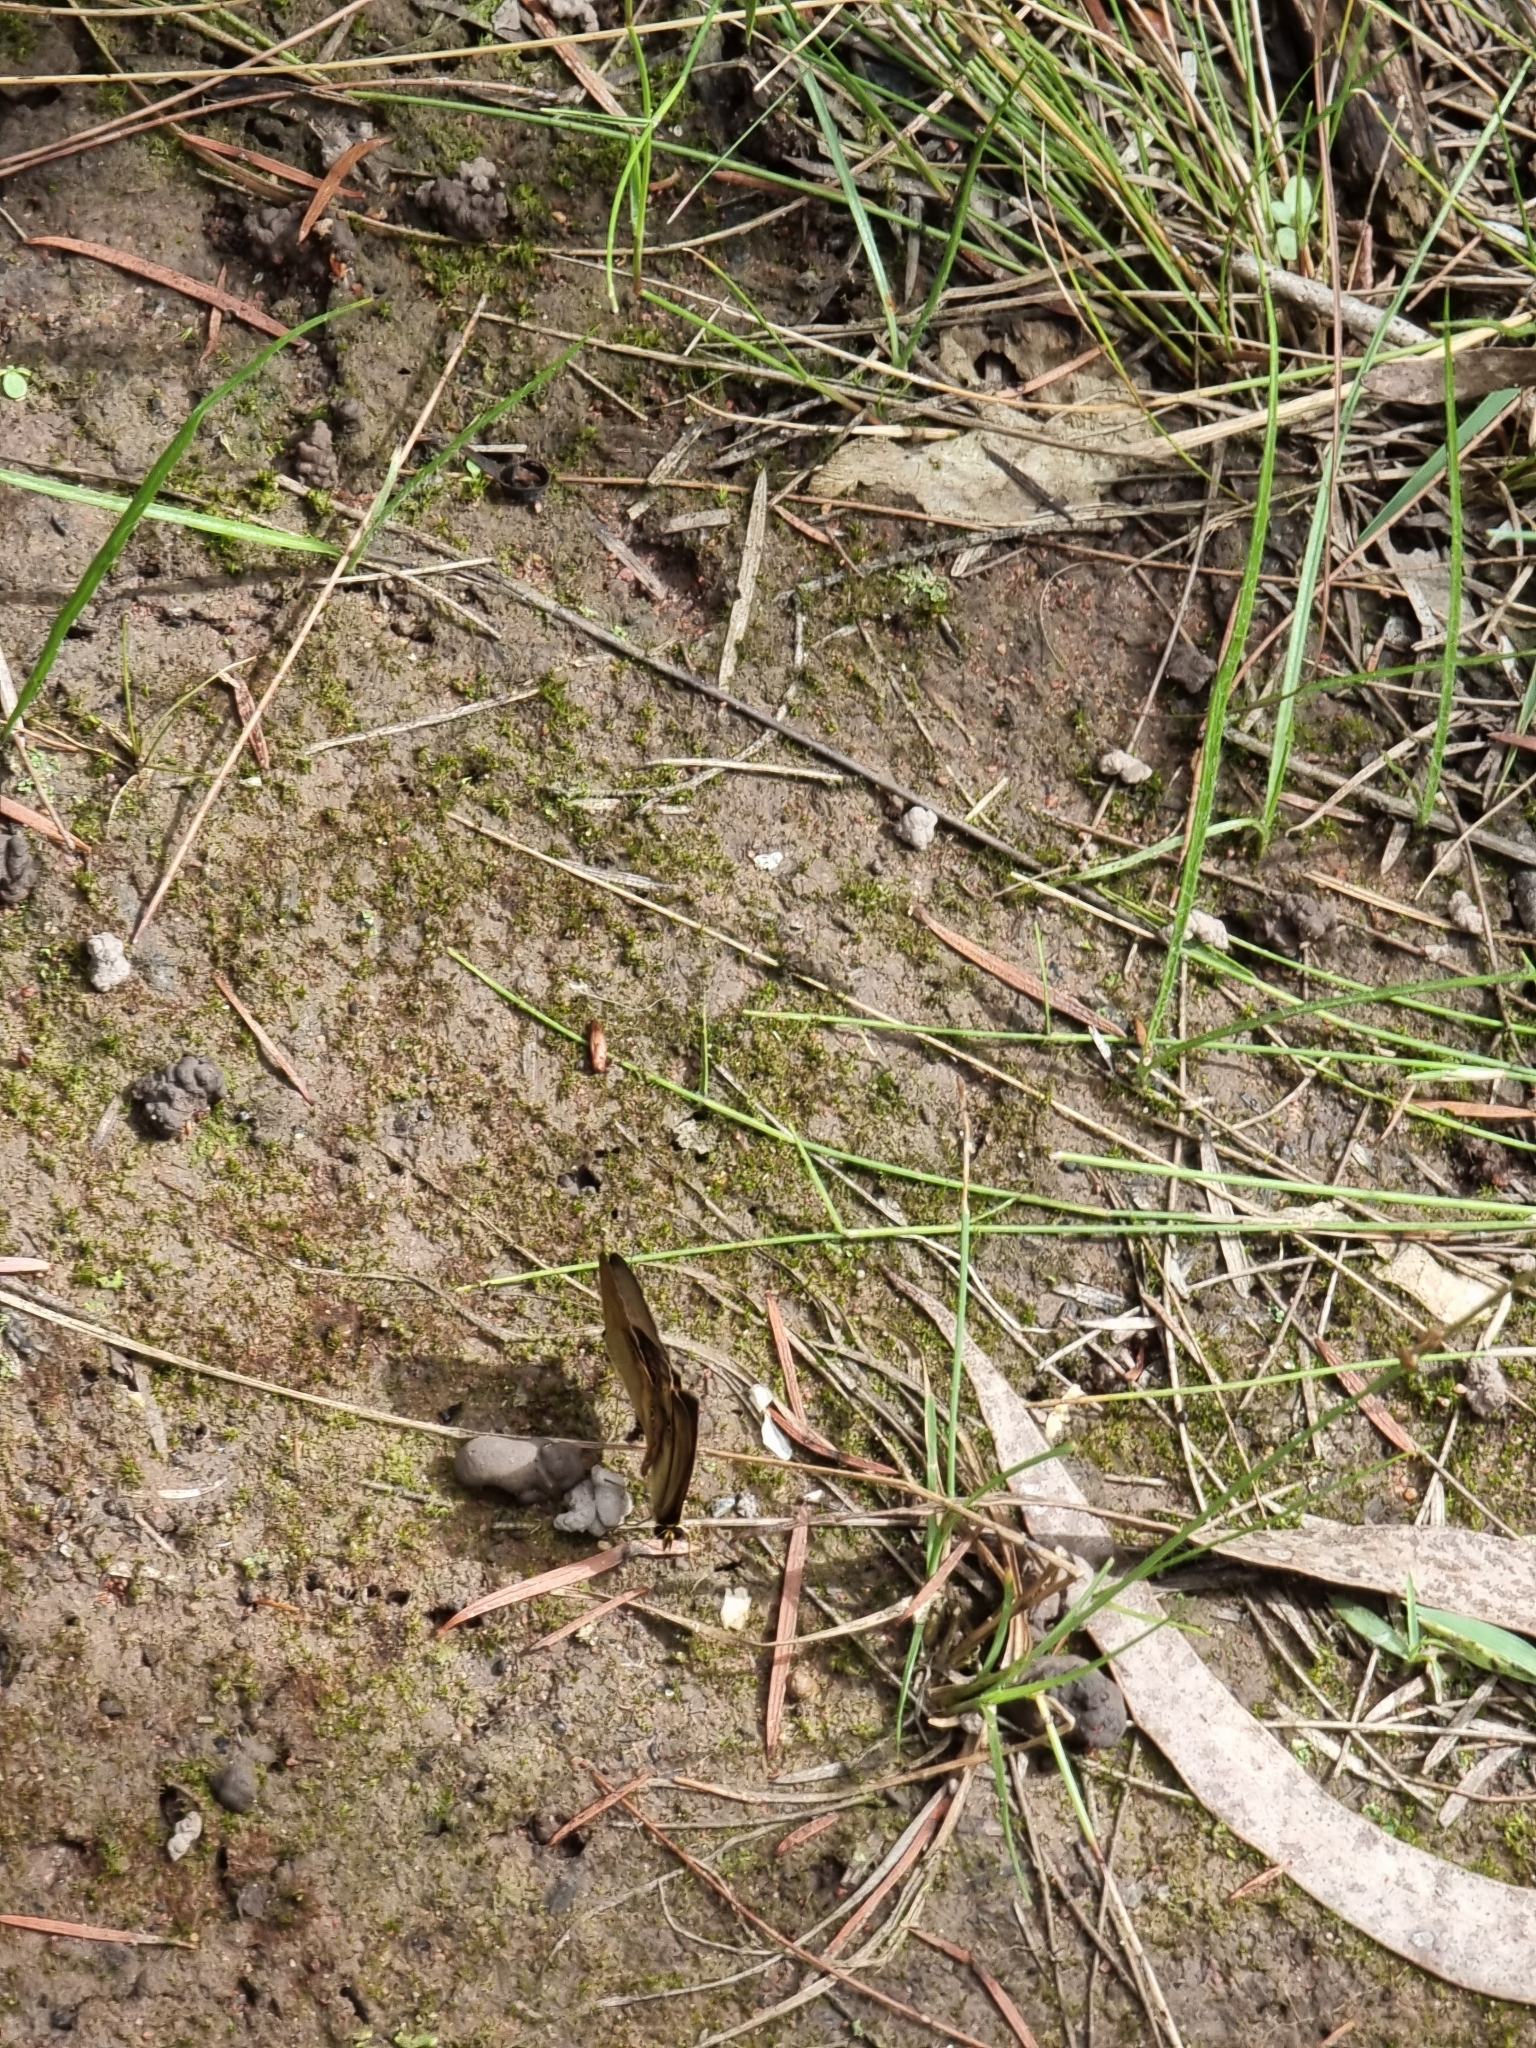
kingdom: Animalia
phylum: Arthropoda
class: Insecta
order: Lepidoptera
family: Nymphalidae
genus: Hypocysta
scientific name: Hypocysta metirius
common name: Brown ringlet
